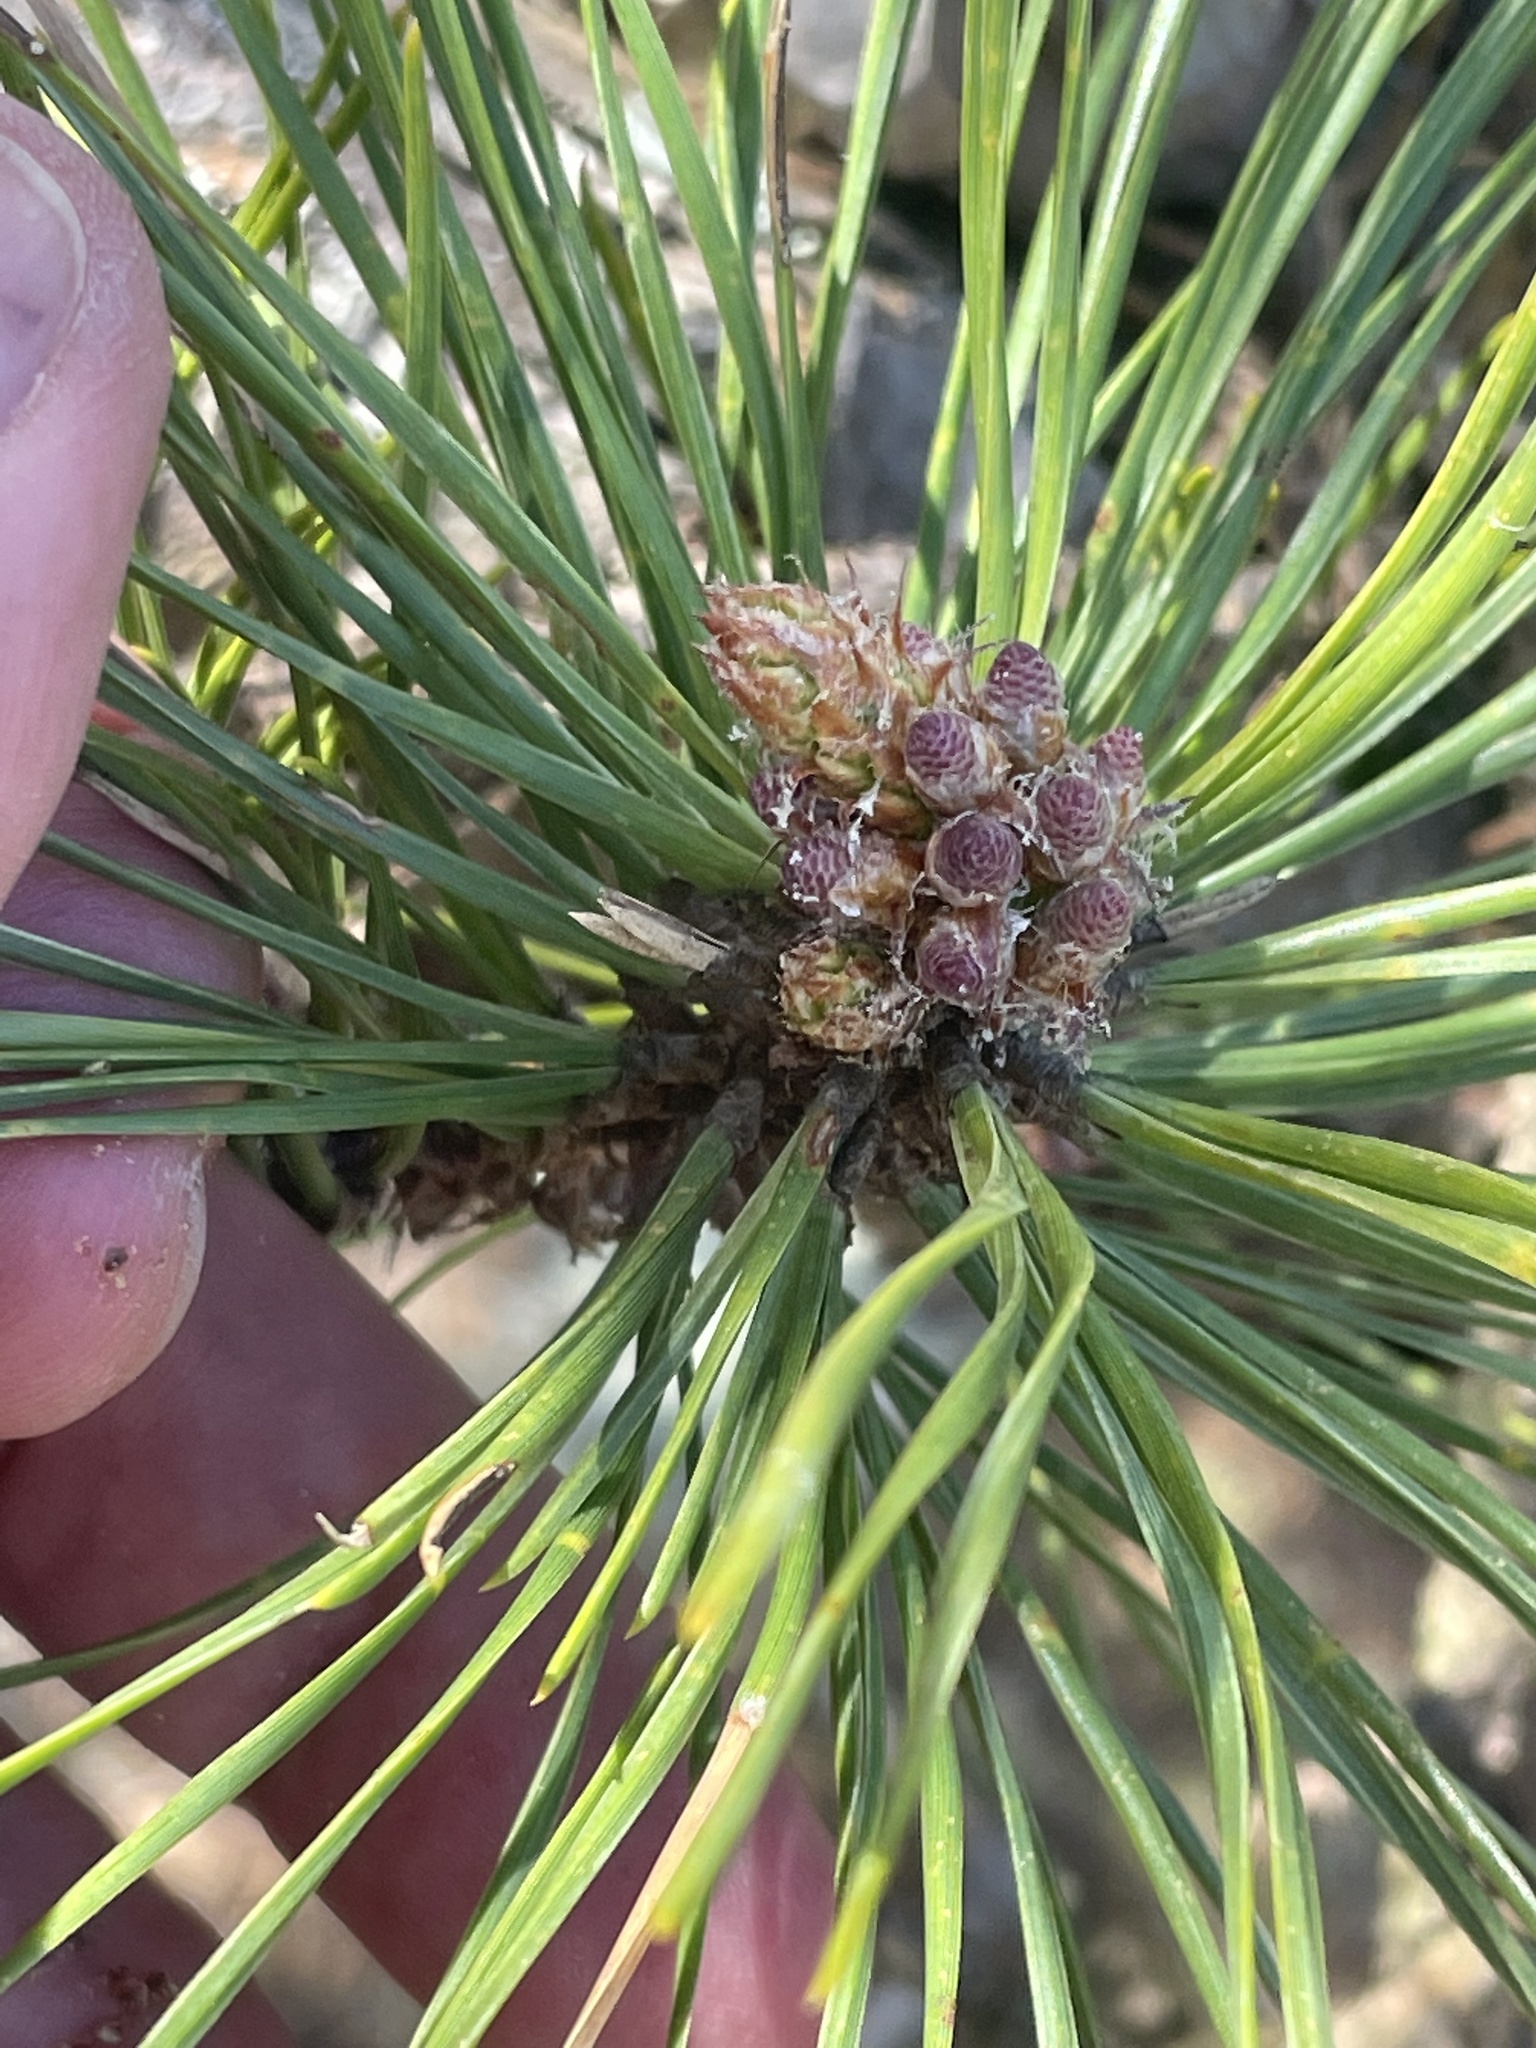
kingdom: Plantae
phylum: Tracheophyta
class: Pinopsida
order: Pinales
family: Pinaceae
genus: Pinus
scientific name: Pinus rigida
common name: Pitch pine
